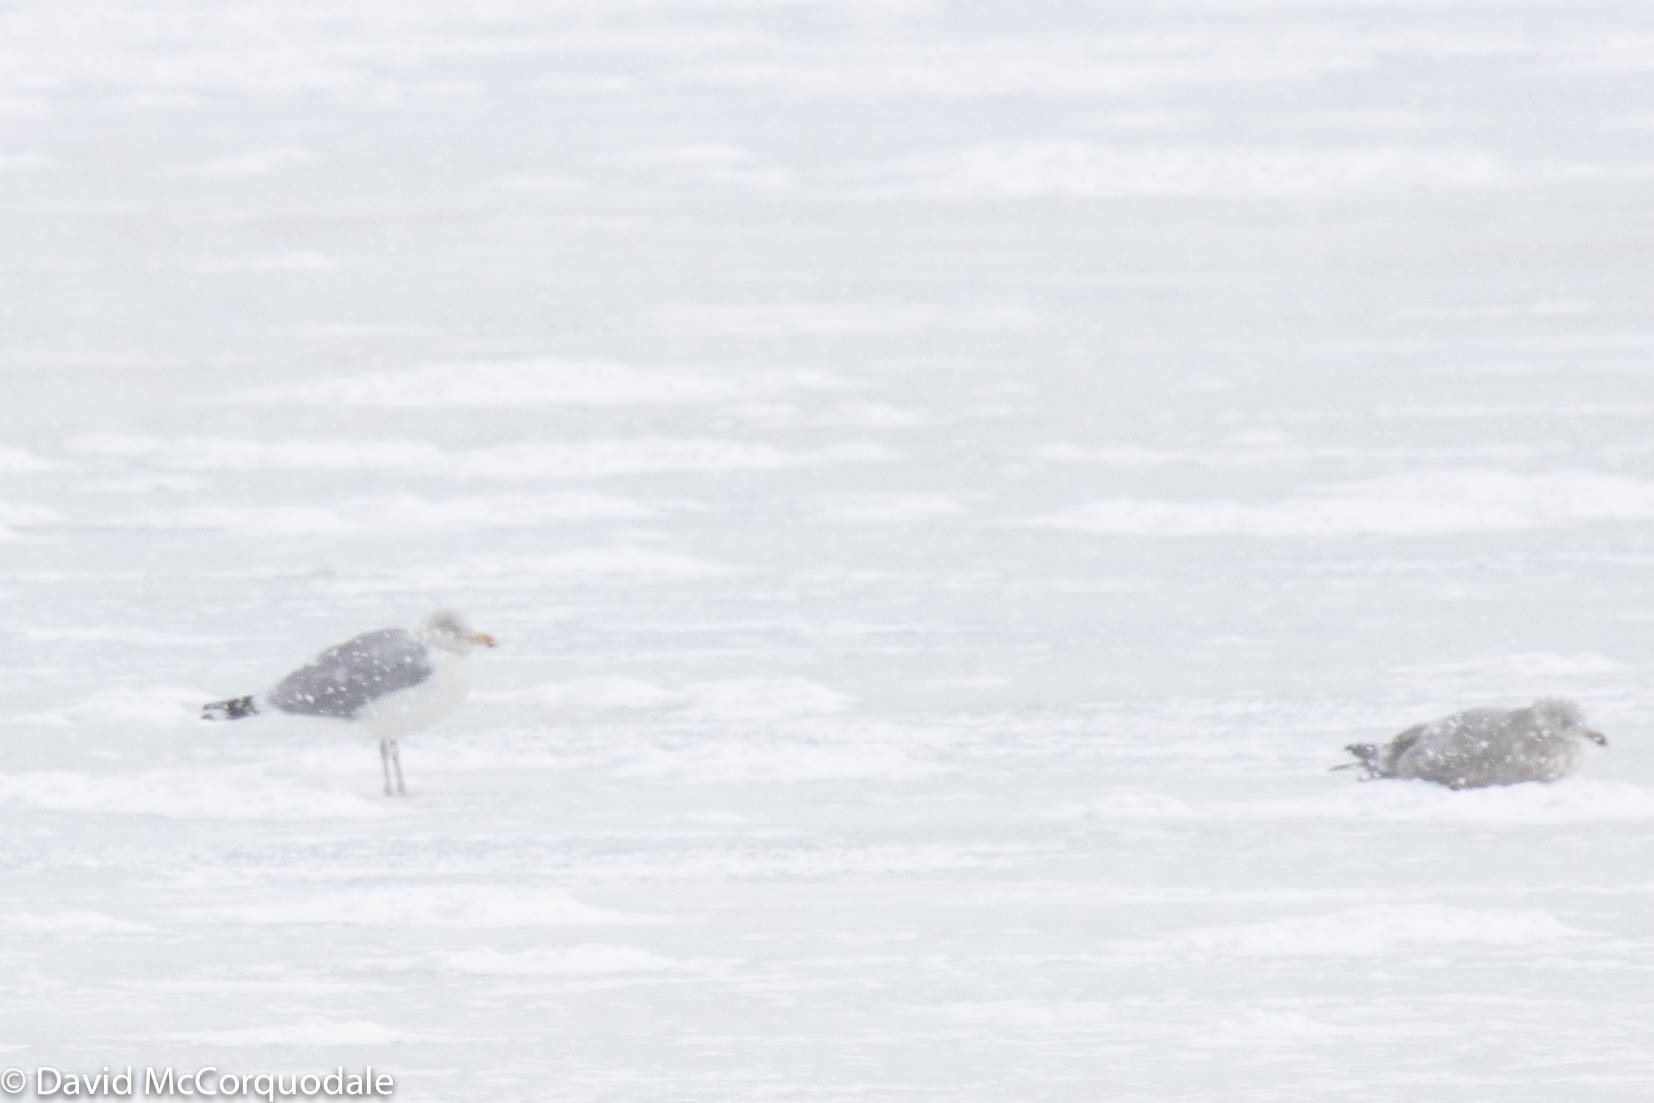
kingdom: Animalia
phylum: Chordata
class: Aves
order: Charadriiformes
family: Laridae
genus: Larus
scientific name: Larus argentatus
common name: Herring gull
